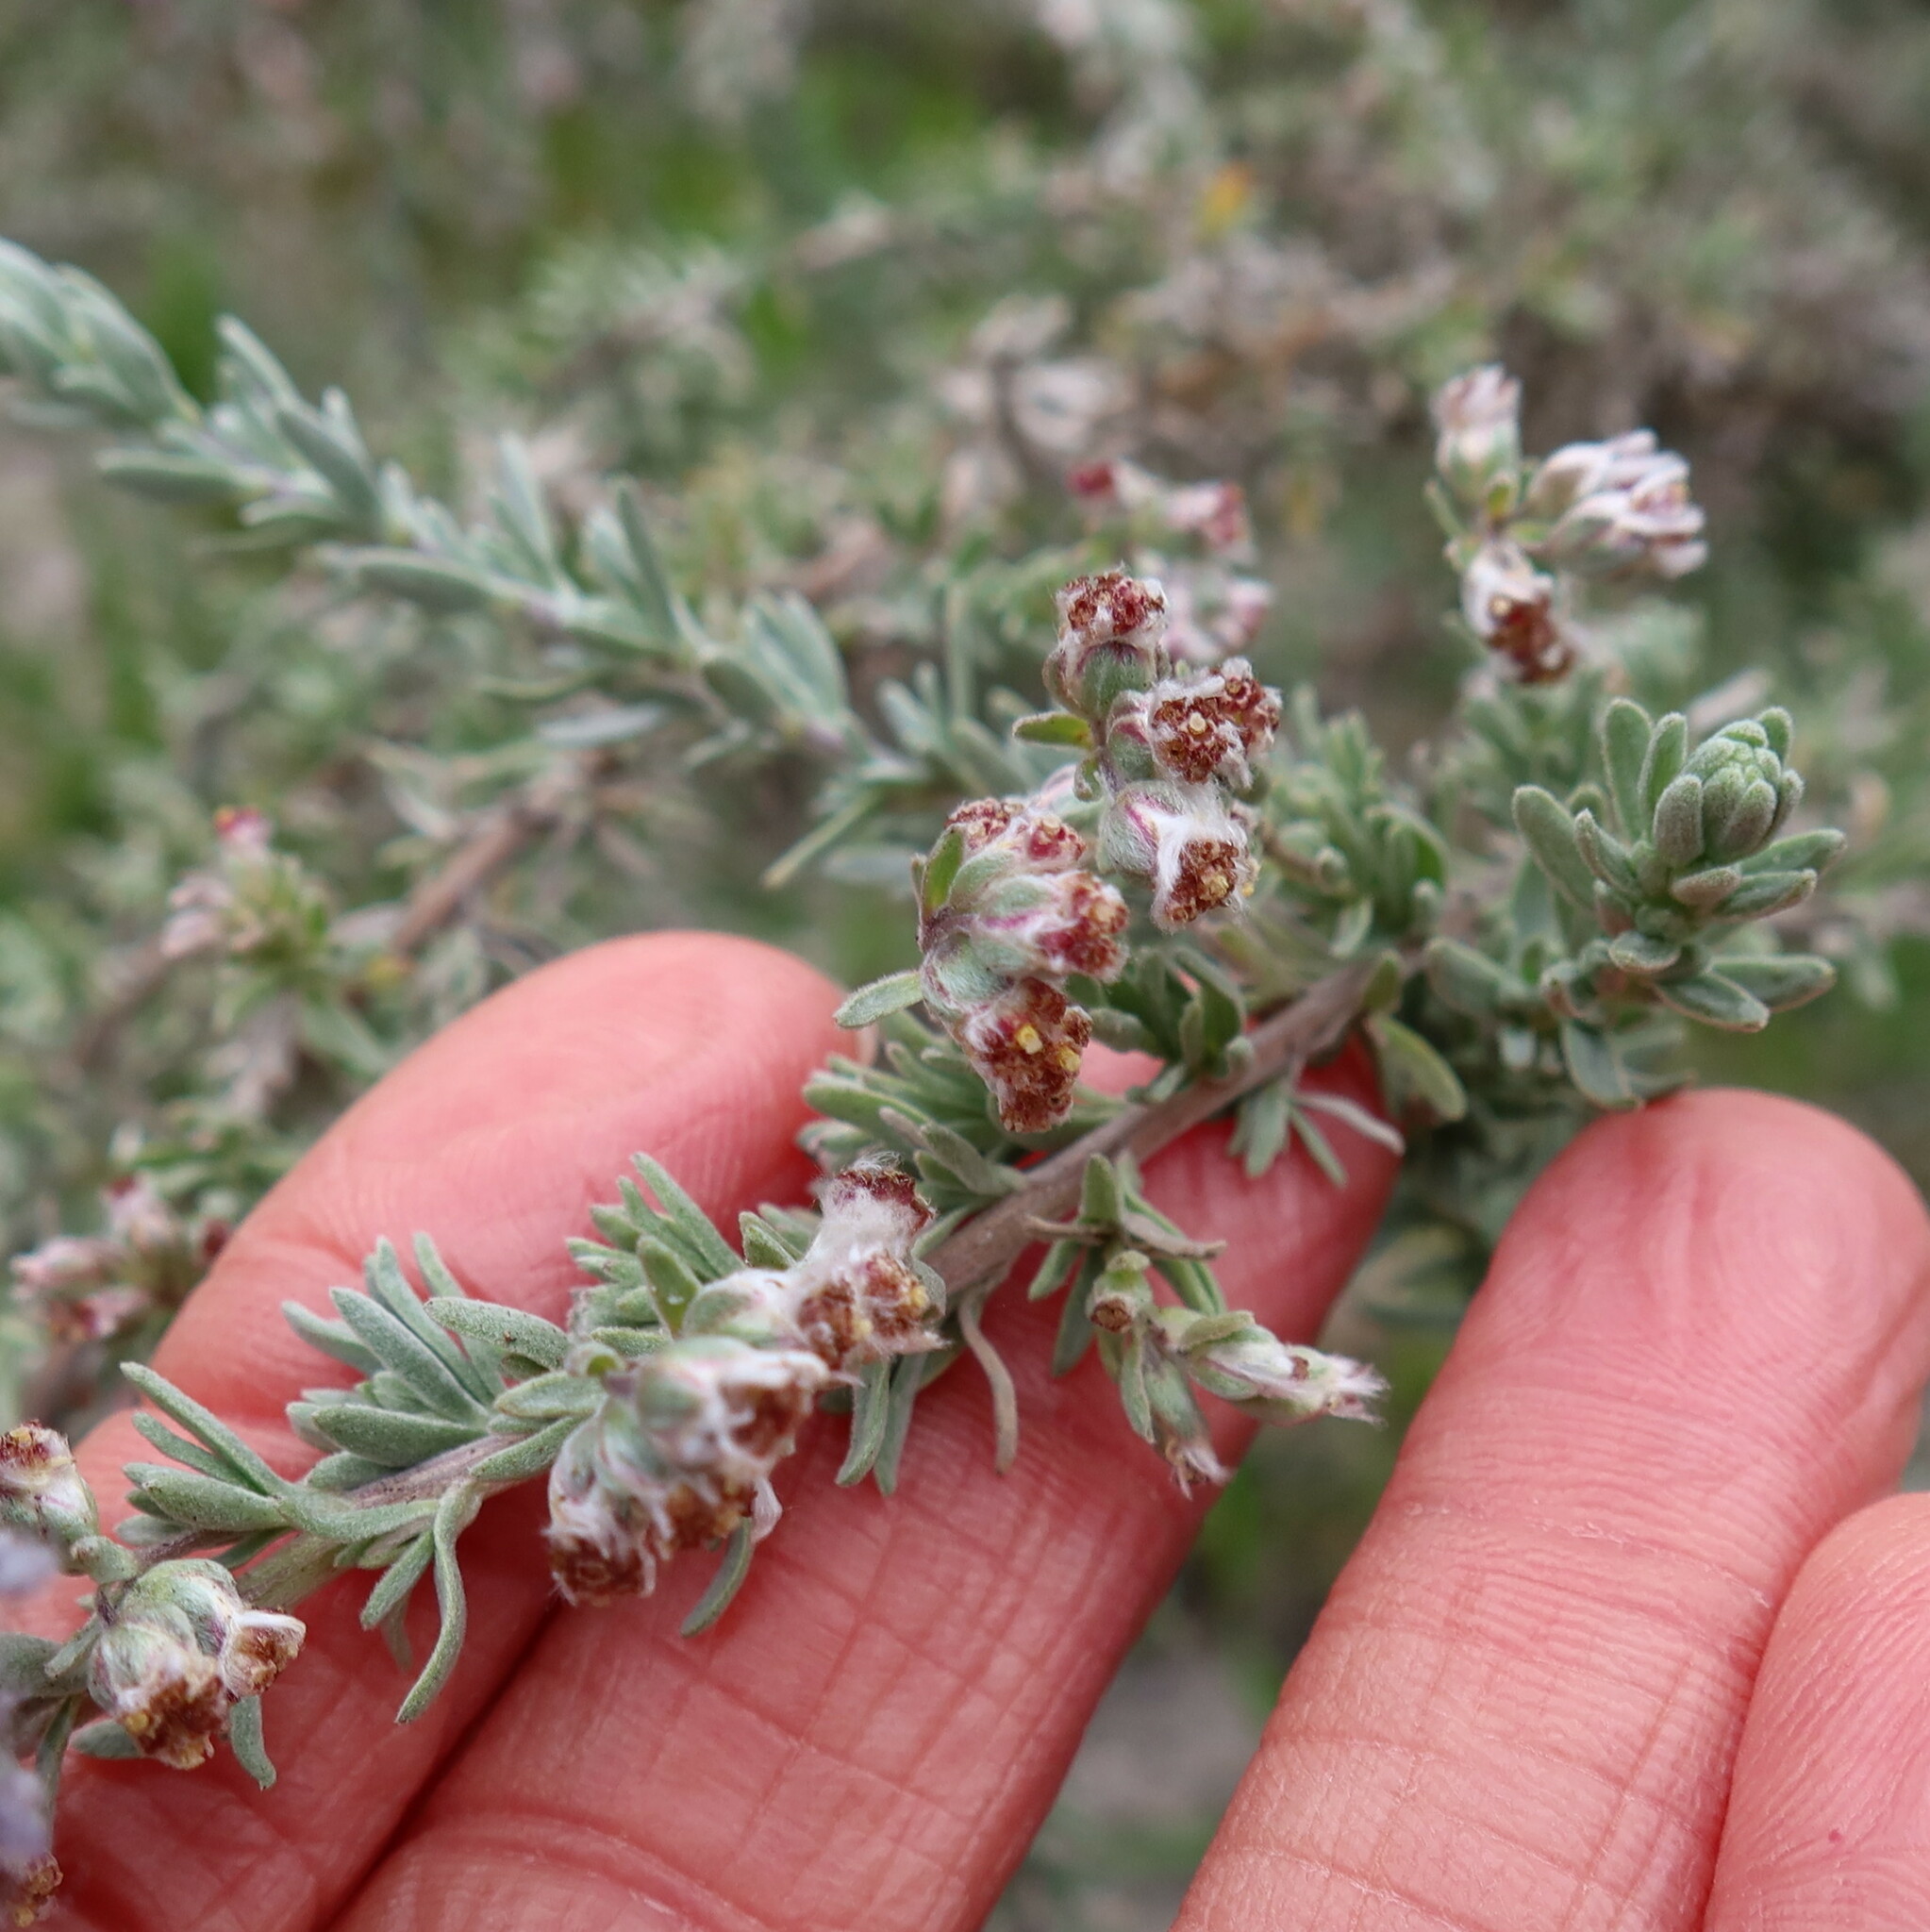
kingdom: Plantae
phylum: Tracheophyta
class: Magnoliopsida
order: Asterales
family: Asteraceae
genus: Eriocephalus
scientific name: Eriocephalus racemosus
